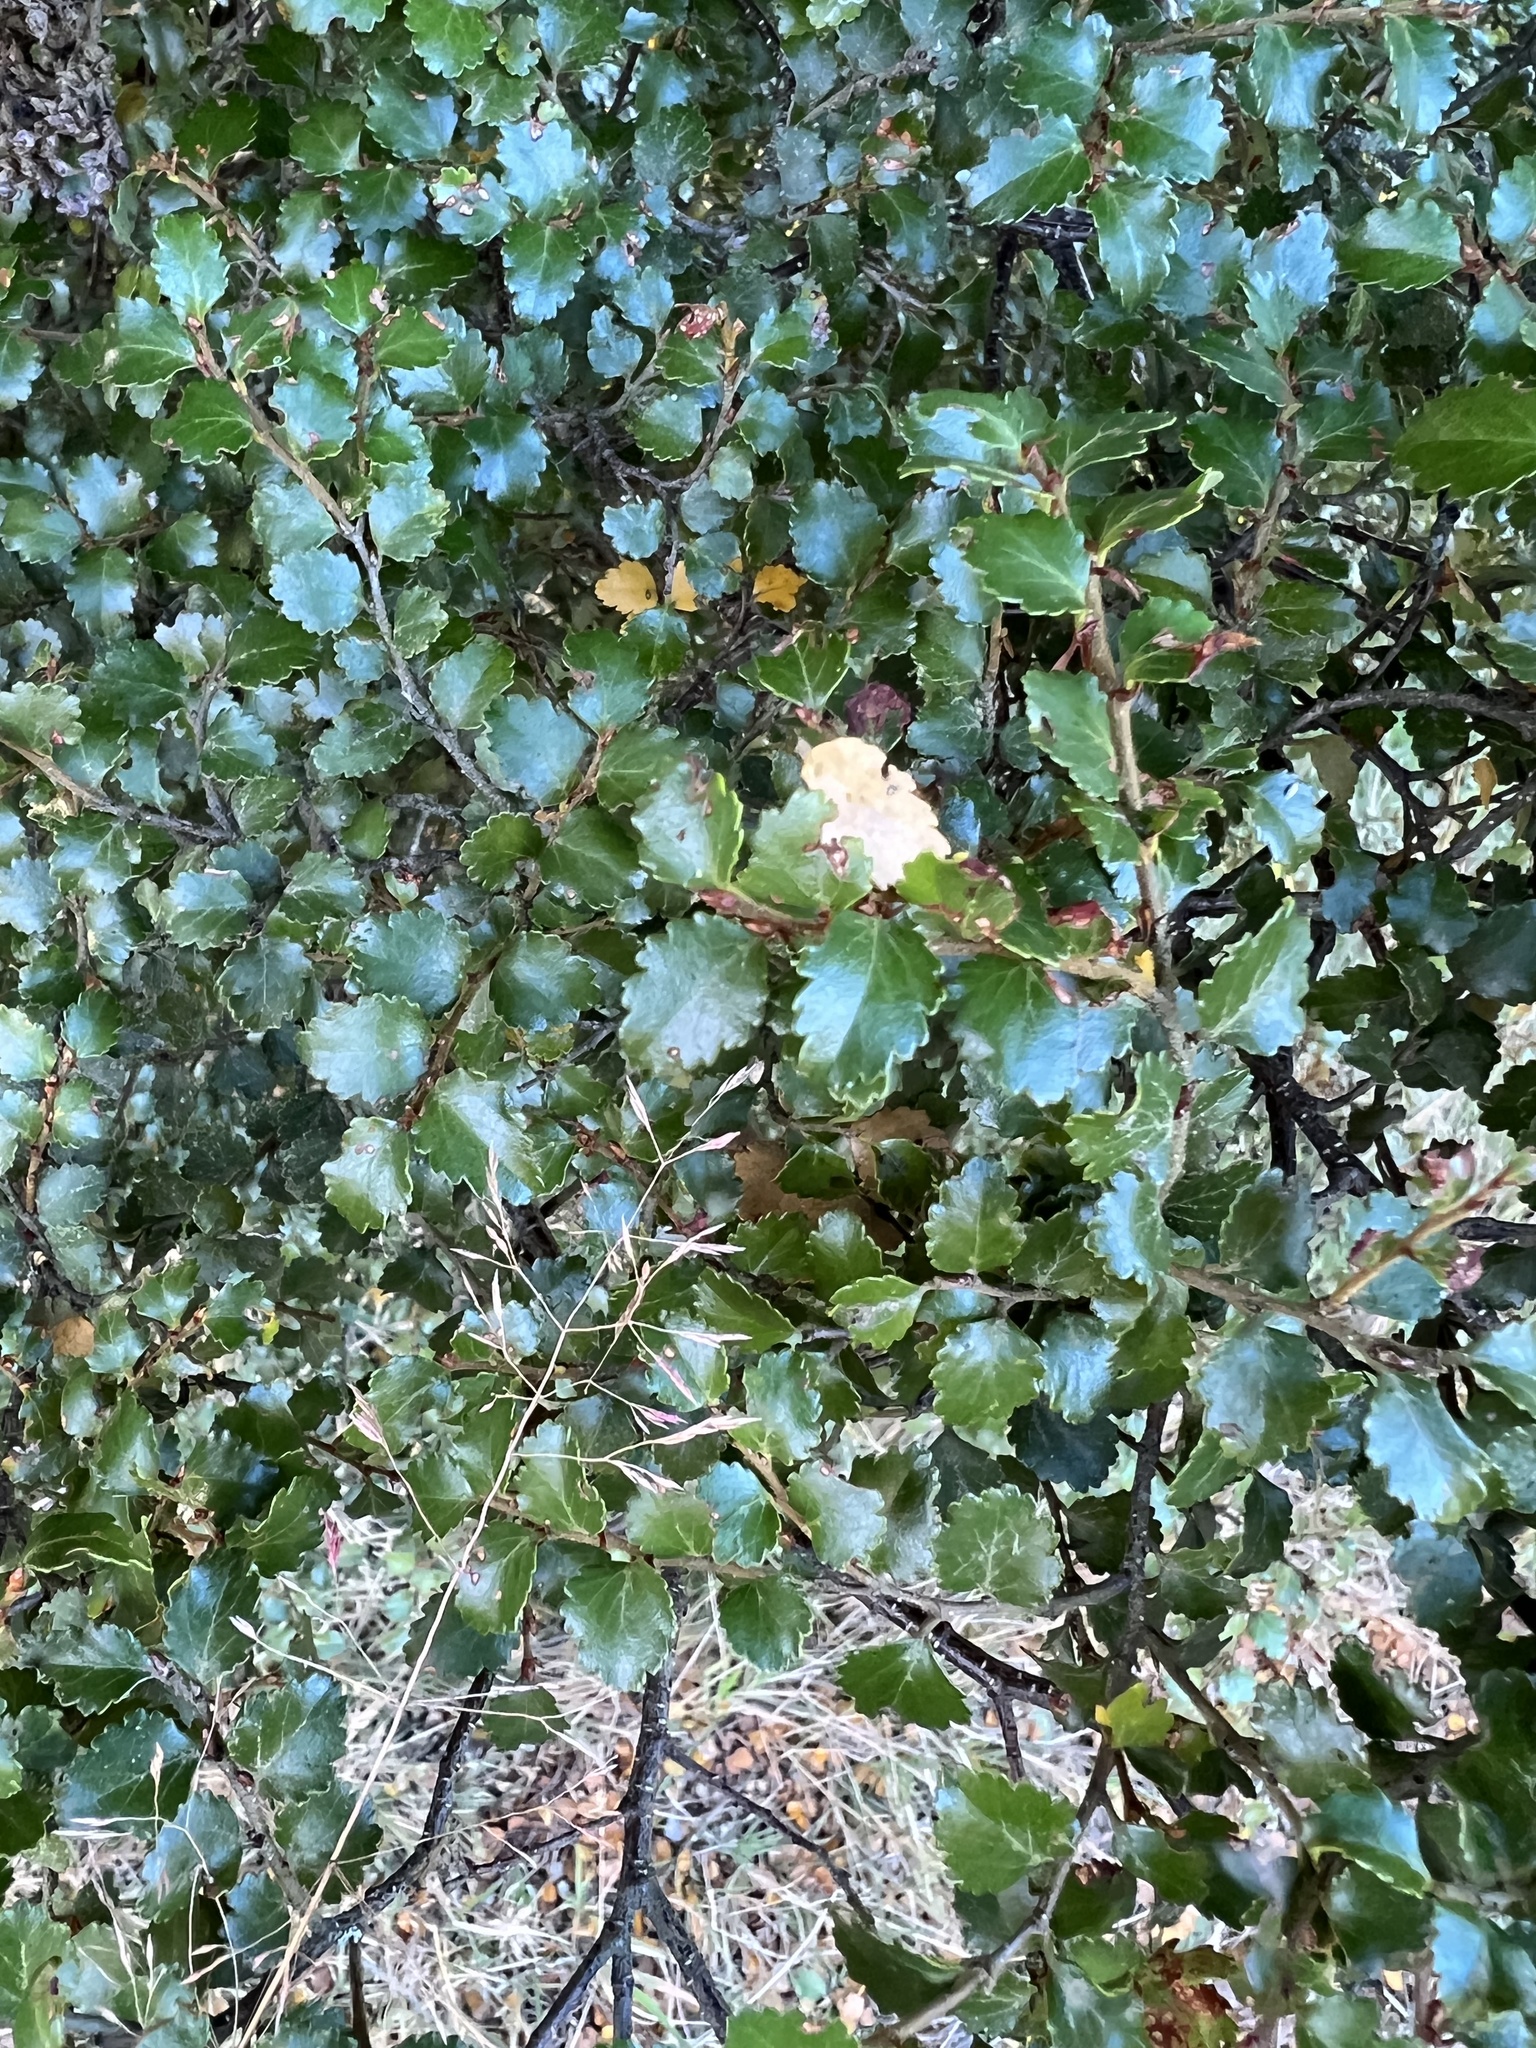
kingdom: Plantae
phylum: Tracheophyta
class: Magnoliopsida
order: Fagales
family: Nothofagaceae
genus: Nothofagus
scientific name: Nothofagus menziesii
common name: Silver beech
